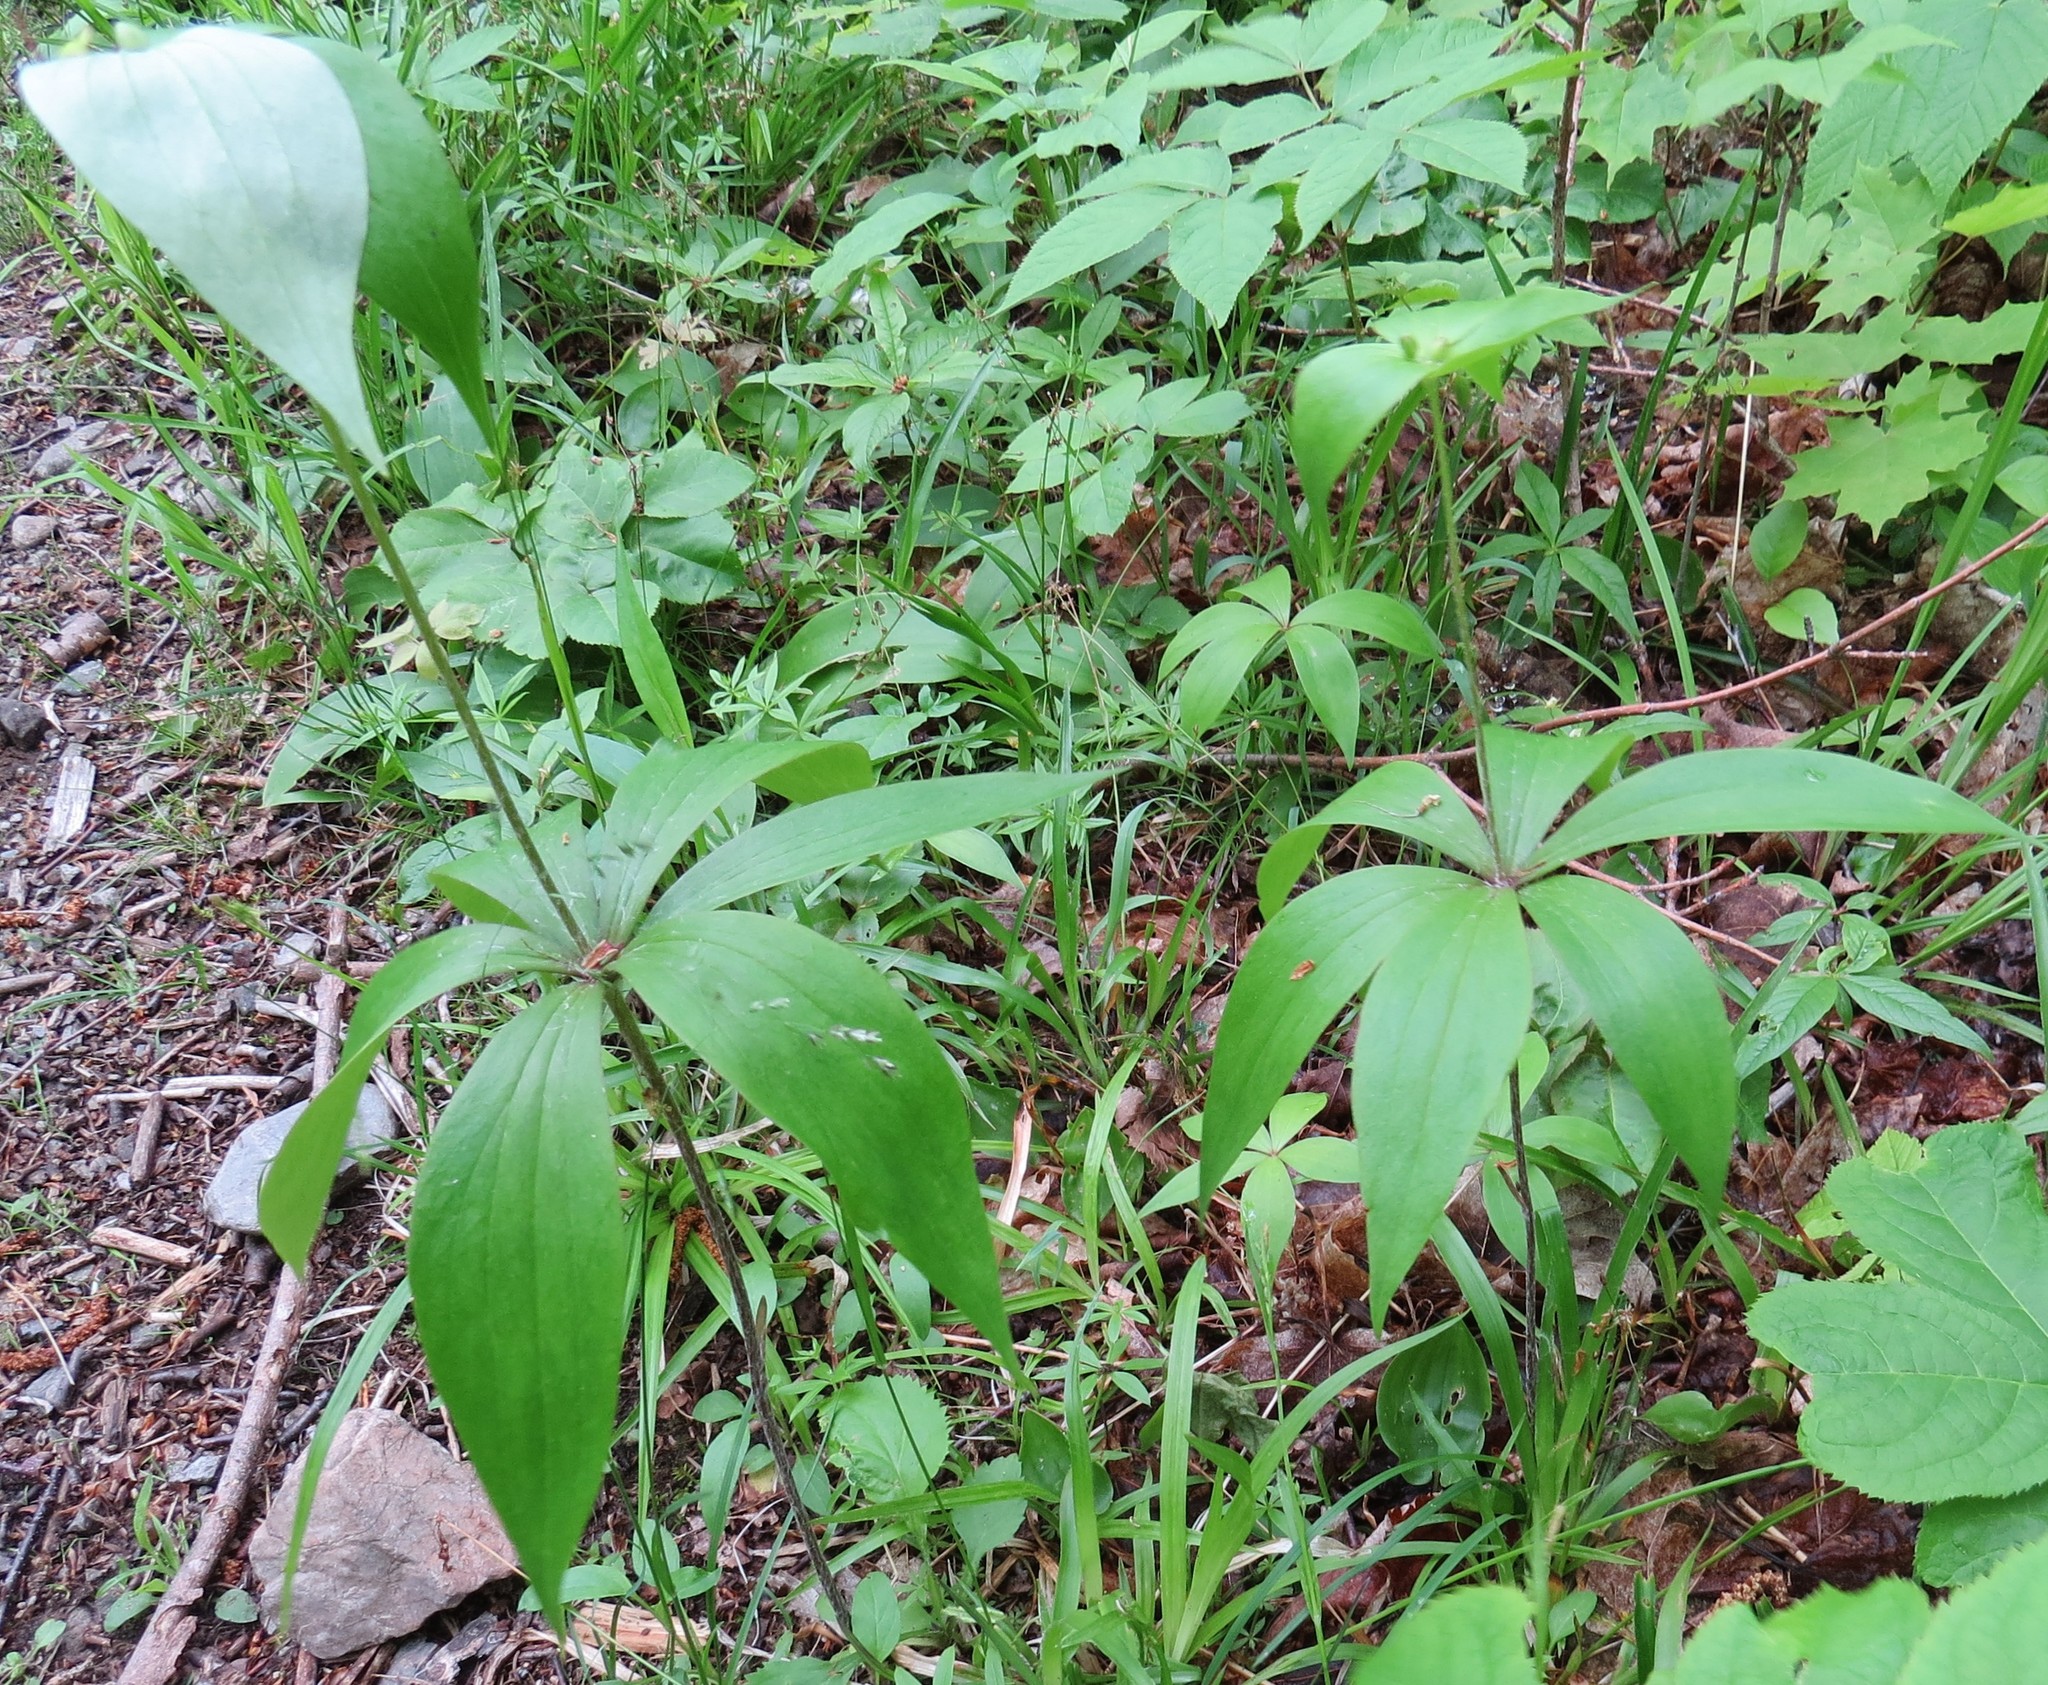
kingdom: Plantae
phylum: Tracheophyta
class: Liliopsida
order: Liliales
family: Liliaceae
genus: Medeola
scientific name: Medeola virginiana
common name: Indian cucumber-root
